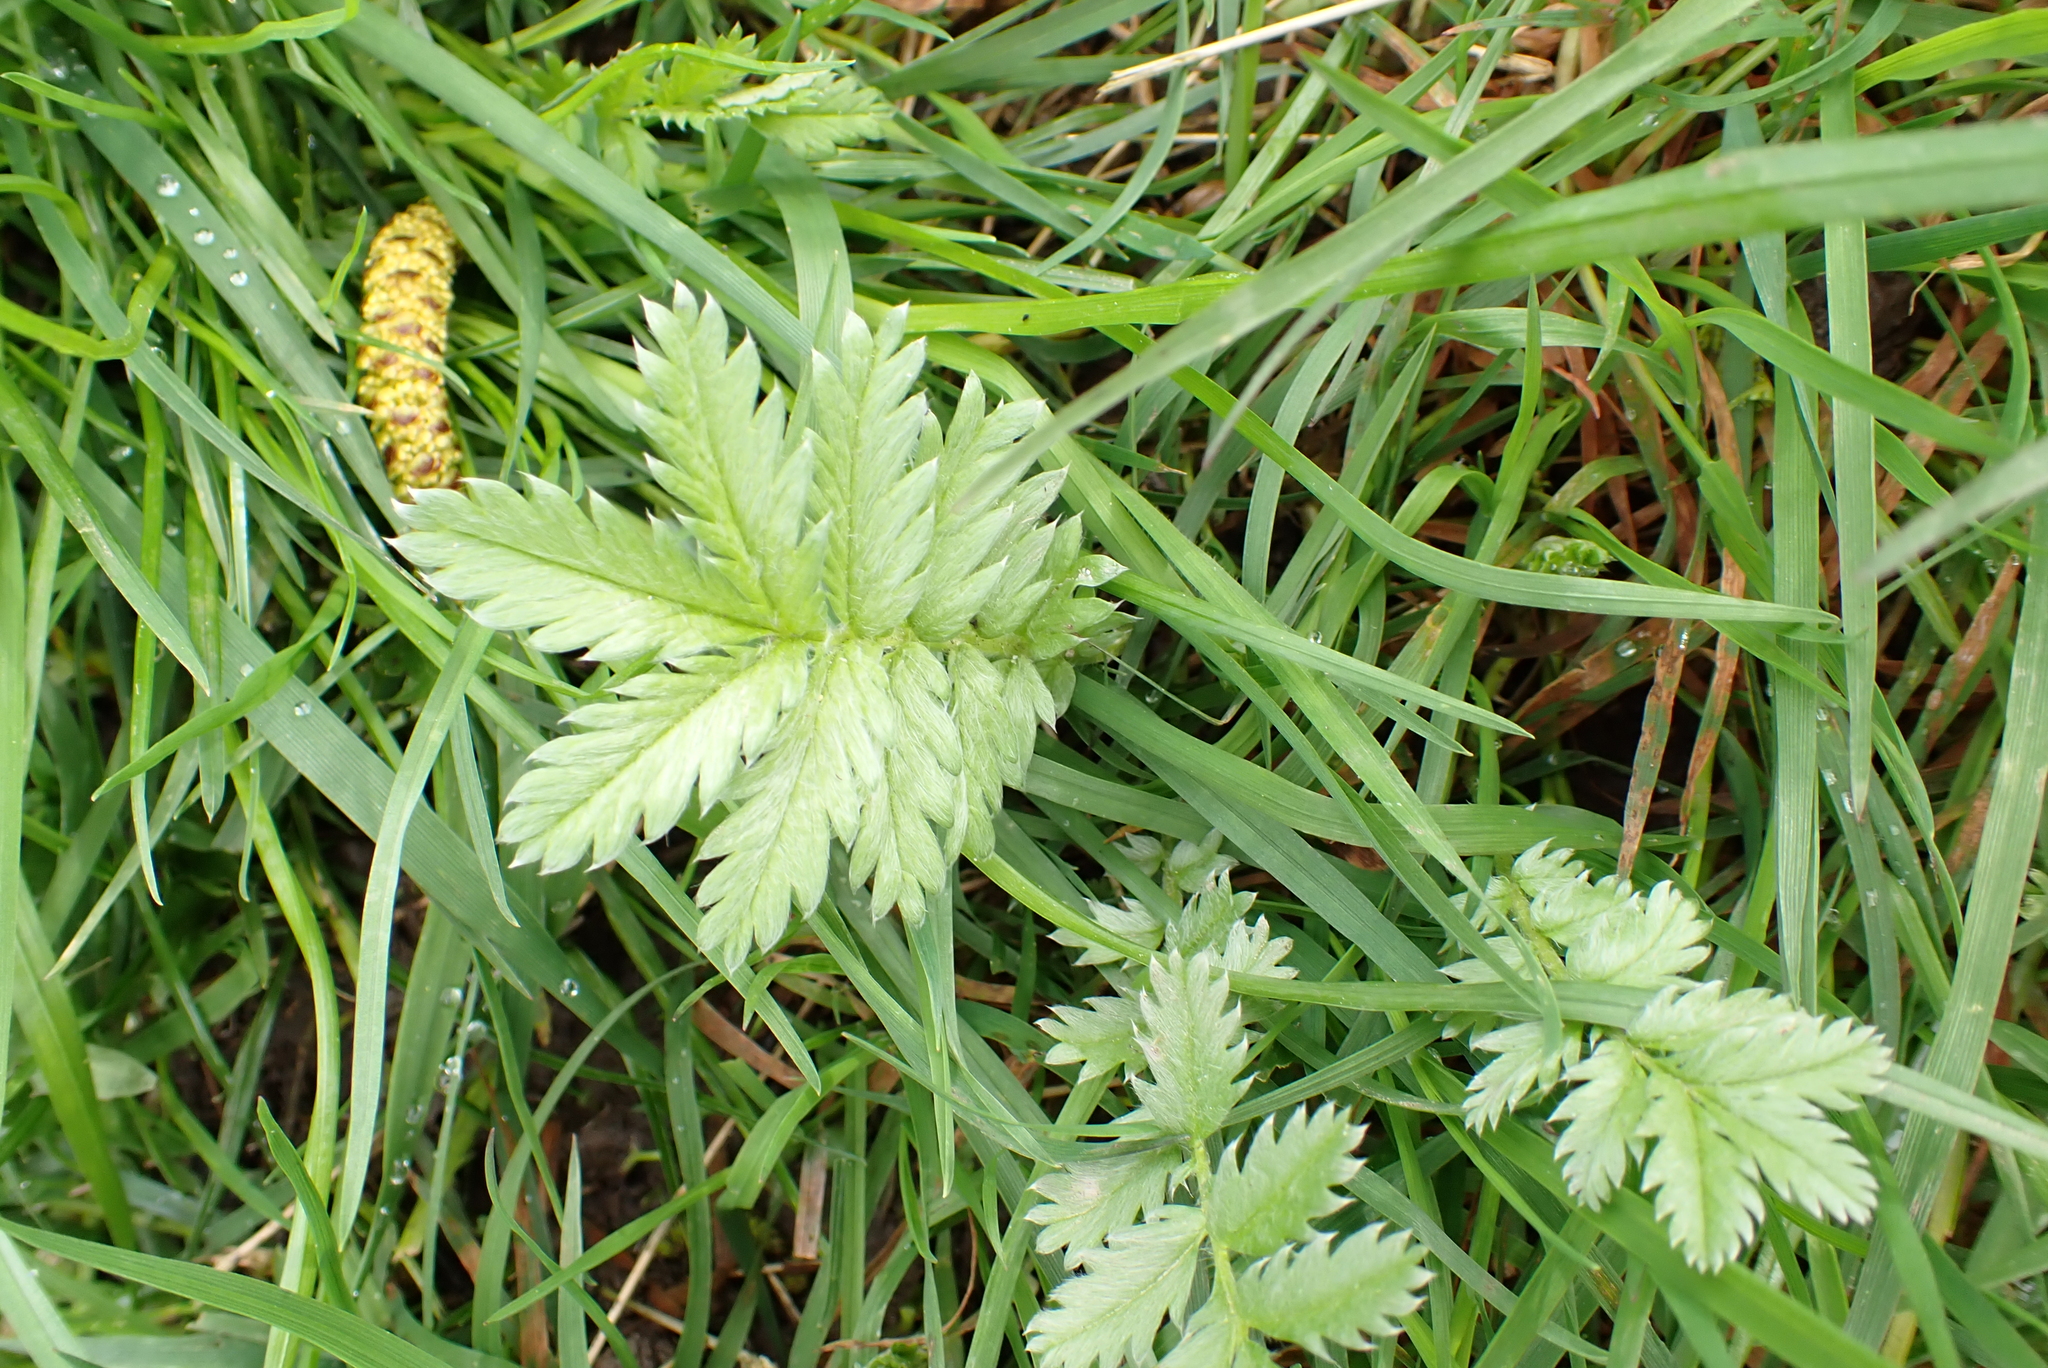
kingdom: Plantae
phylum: Tracheophyta
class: Magnoliopsida
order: Rosales
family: Rosaceae
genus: Argentina
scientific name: Argentina anserina
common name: Common silverweed
